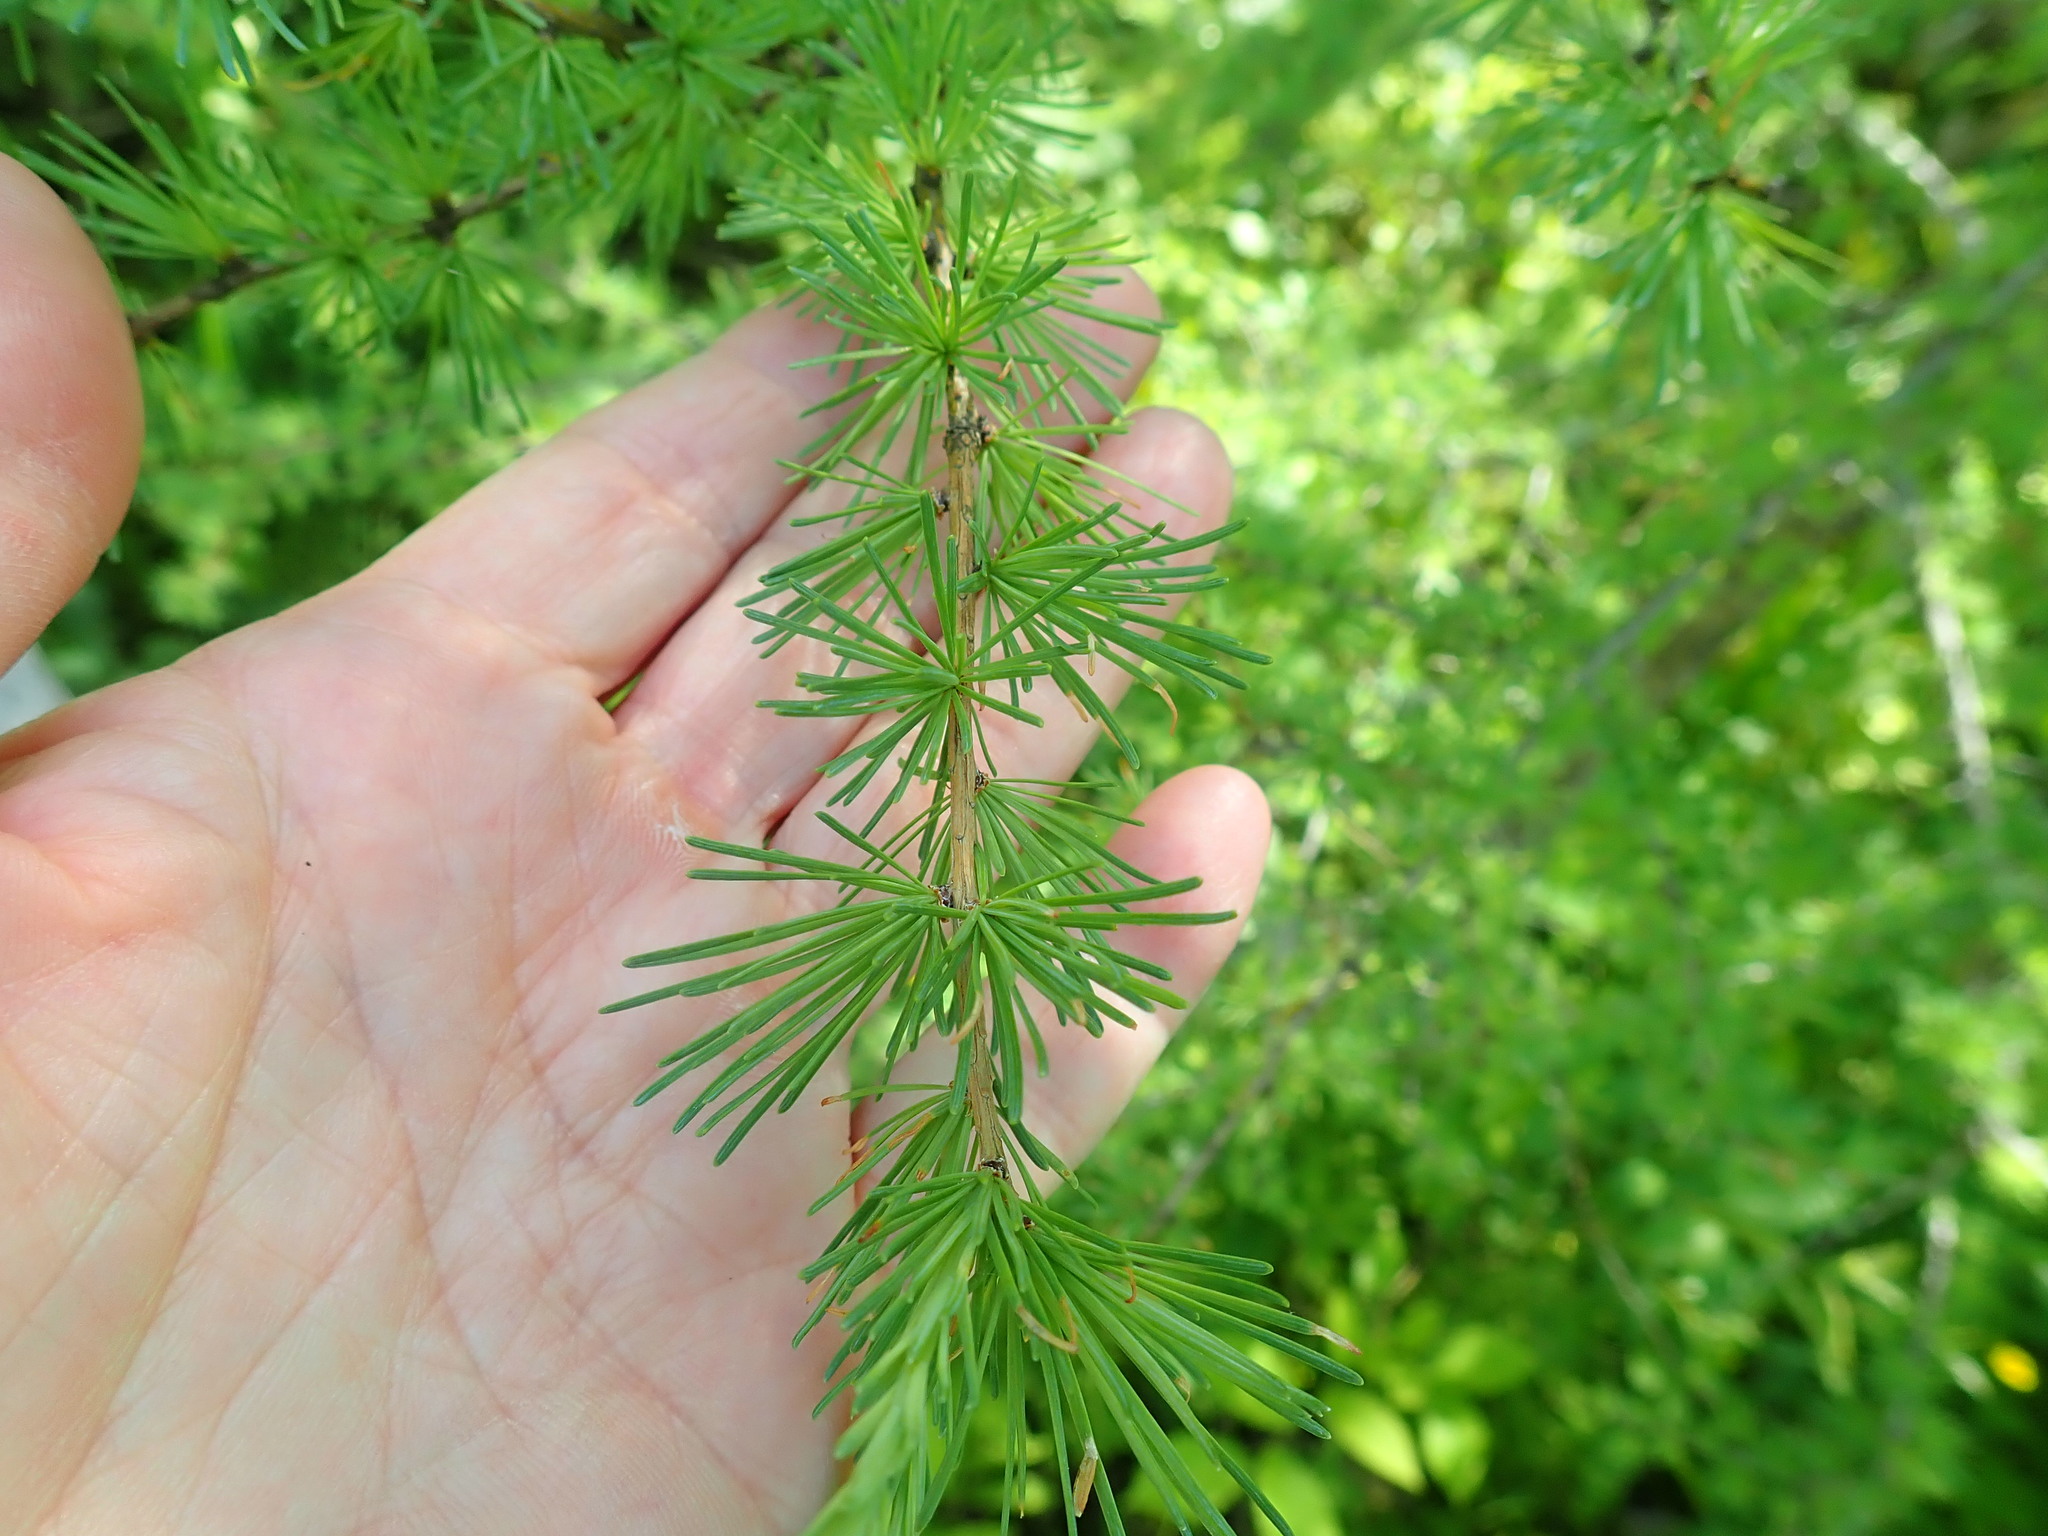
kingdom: Plantae
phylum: Tracheophyta
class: Pinopsida
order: Pinales
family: Pinaceae
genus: Larix
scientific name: Larix laricina
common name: American larch
